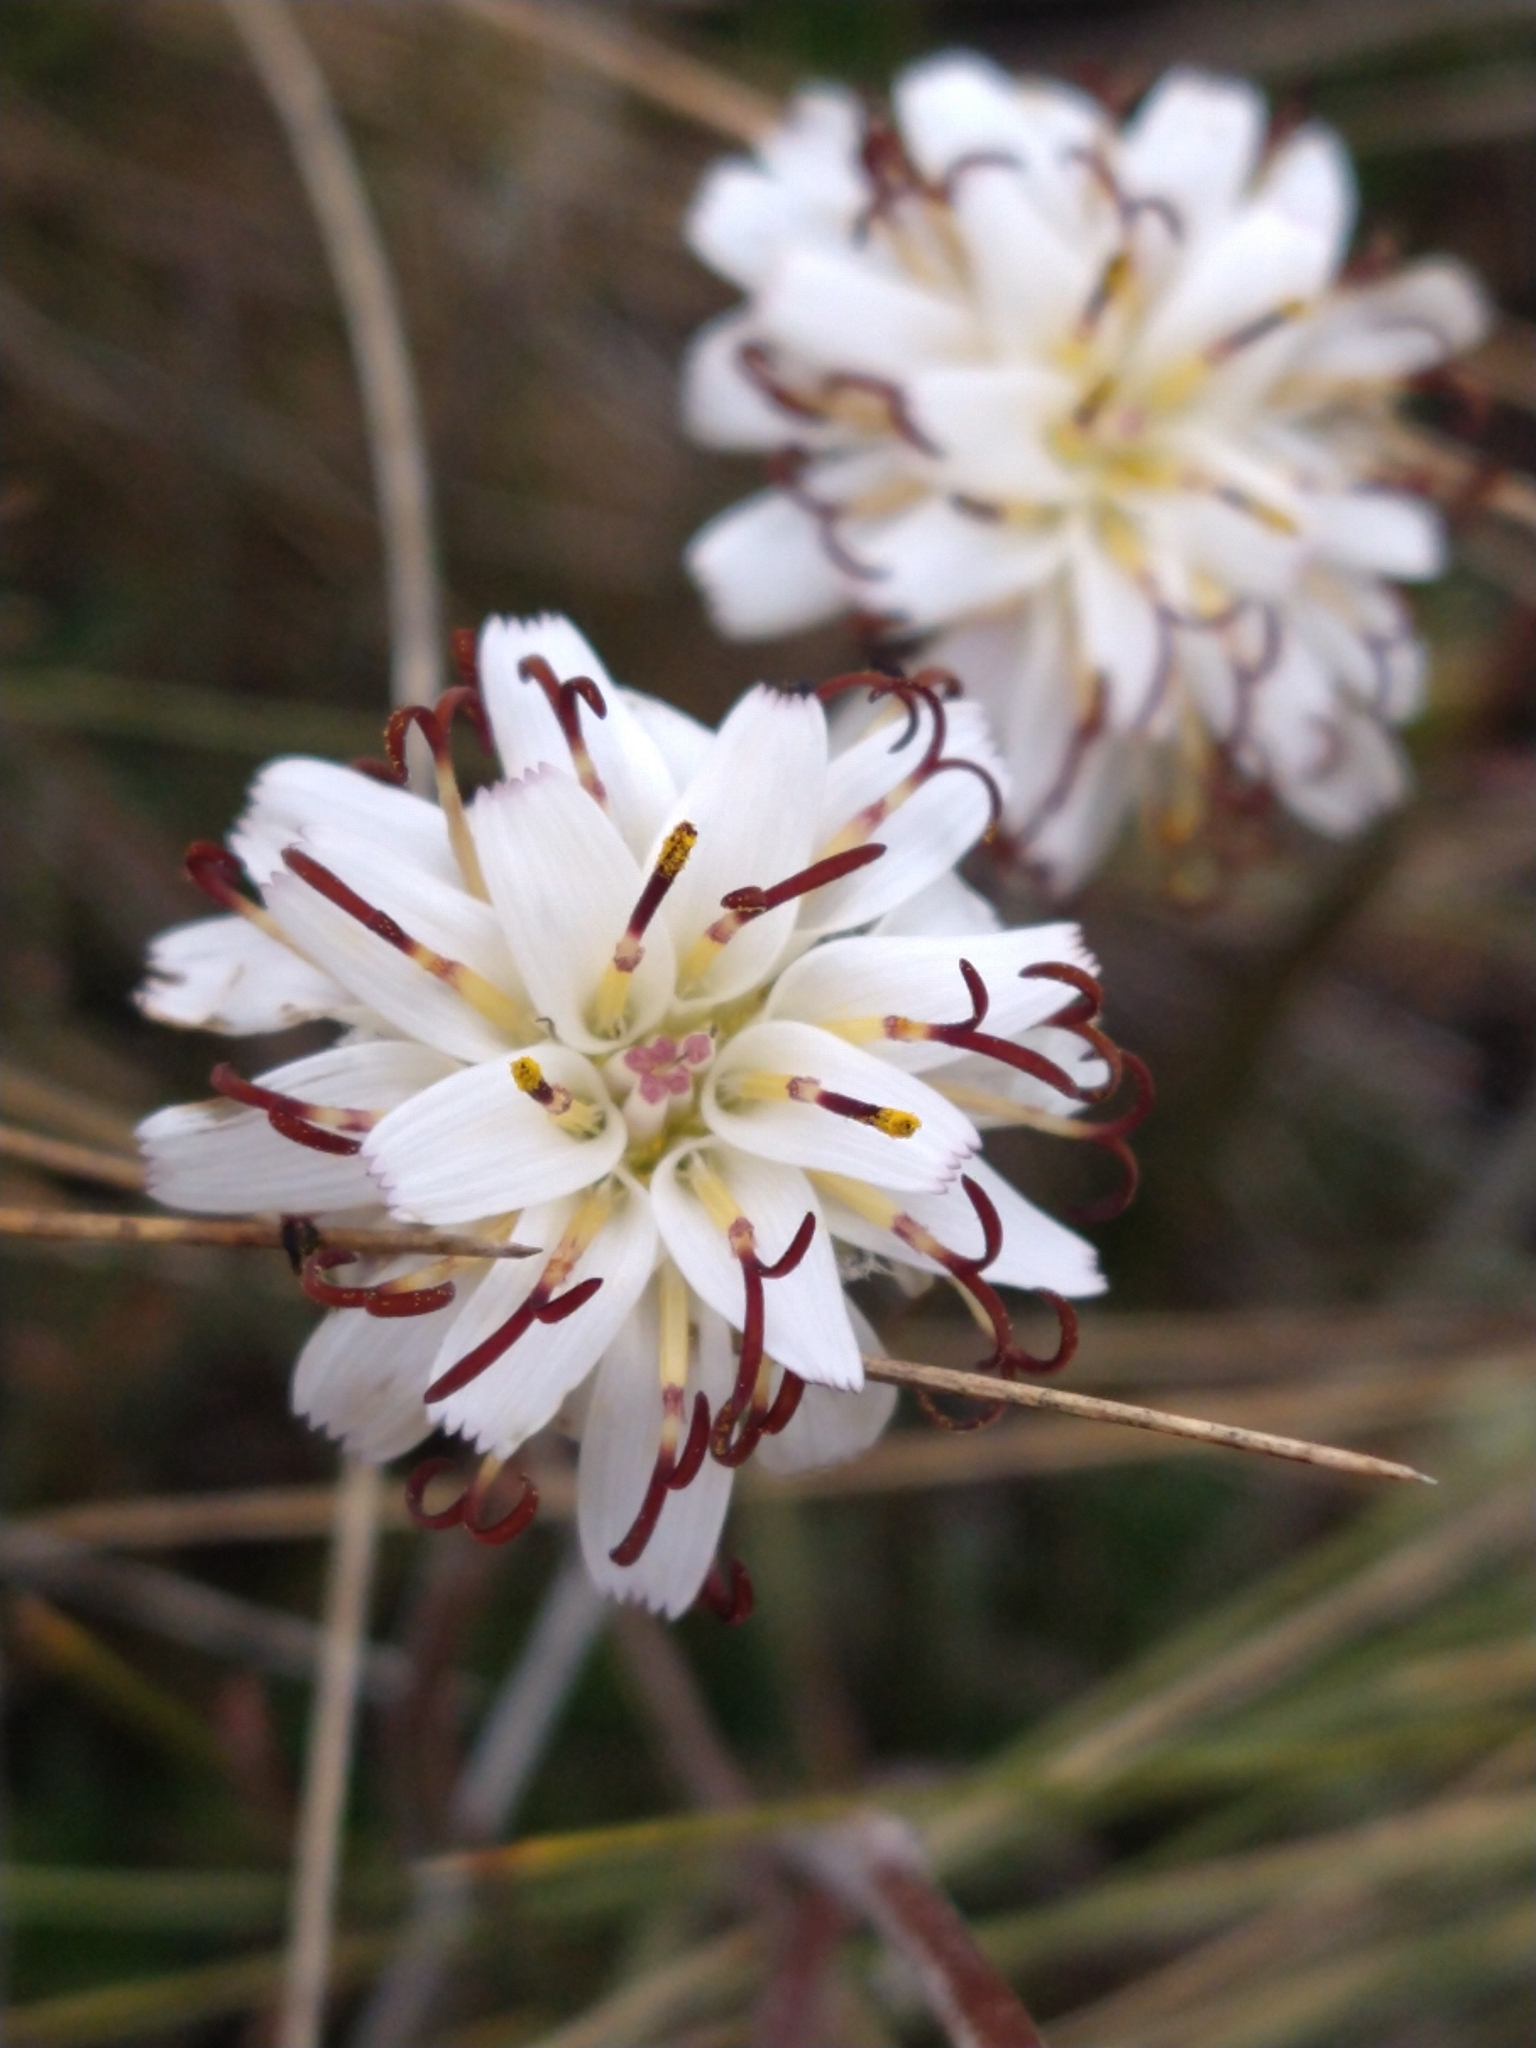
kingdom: Plantae
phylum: Tracheophyta
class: Magnoliopsida
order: Asterales
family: Asteraceae
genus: Hypochaeris
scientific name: Hypochaeris incana
